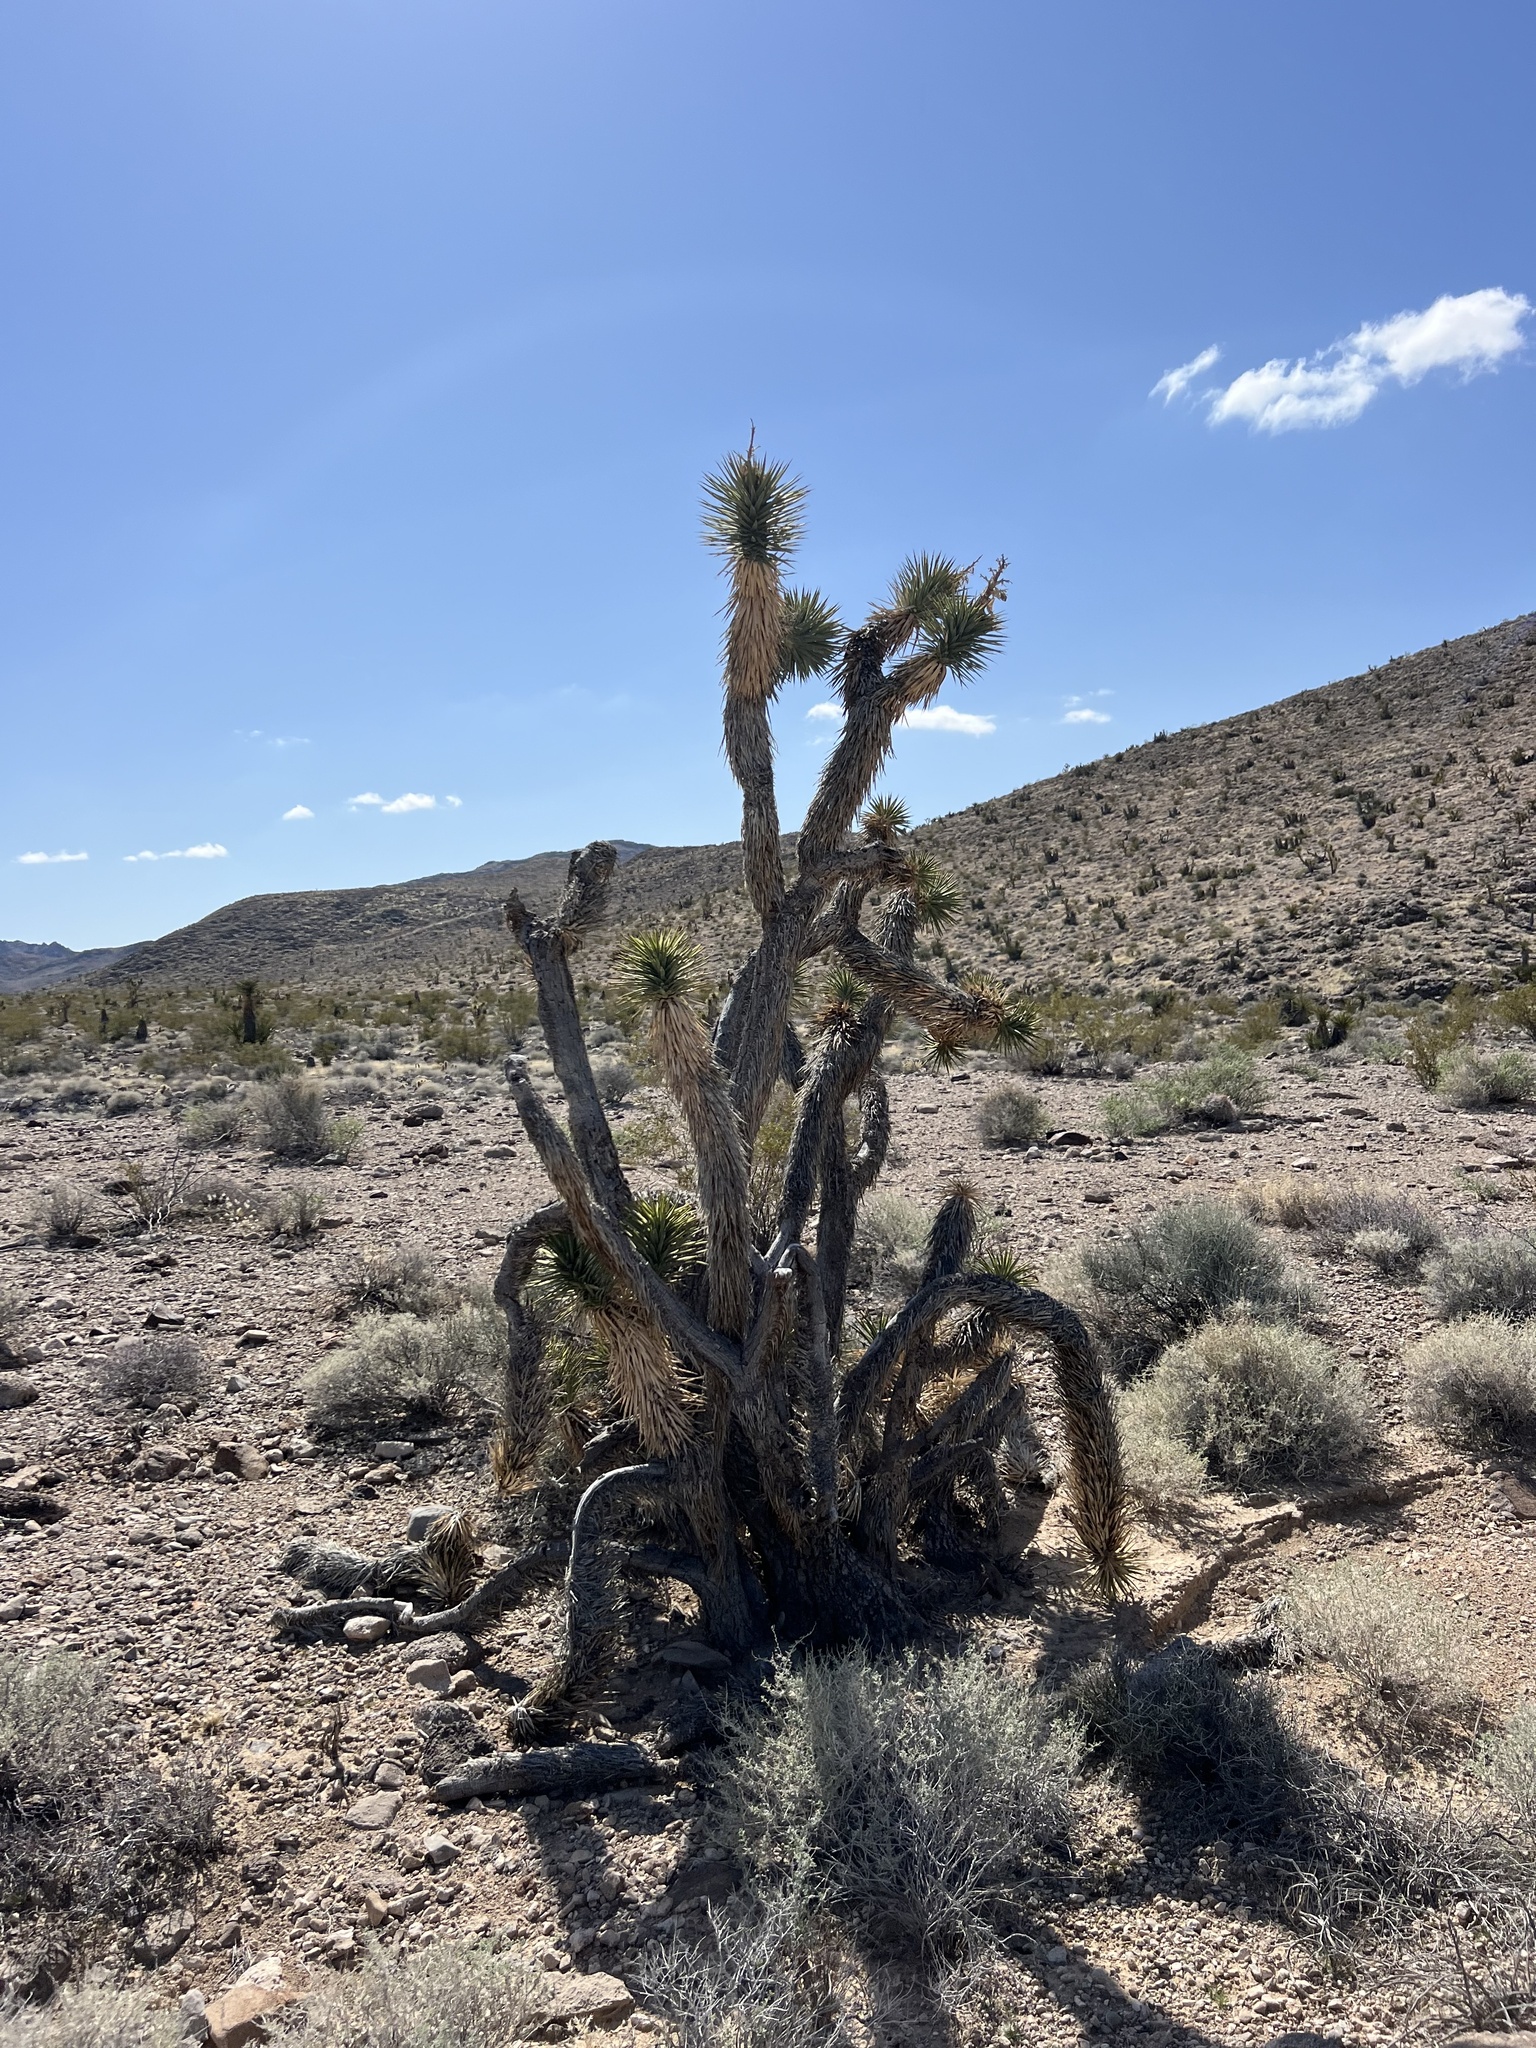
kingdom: Plantae
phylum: Tracheophyta
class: Liliopsida
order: Asparagales
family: Asparagaceae
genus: Yucca
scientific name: Yucca brevifolia
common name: Joshua tree
